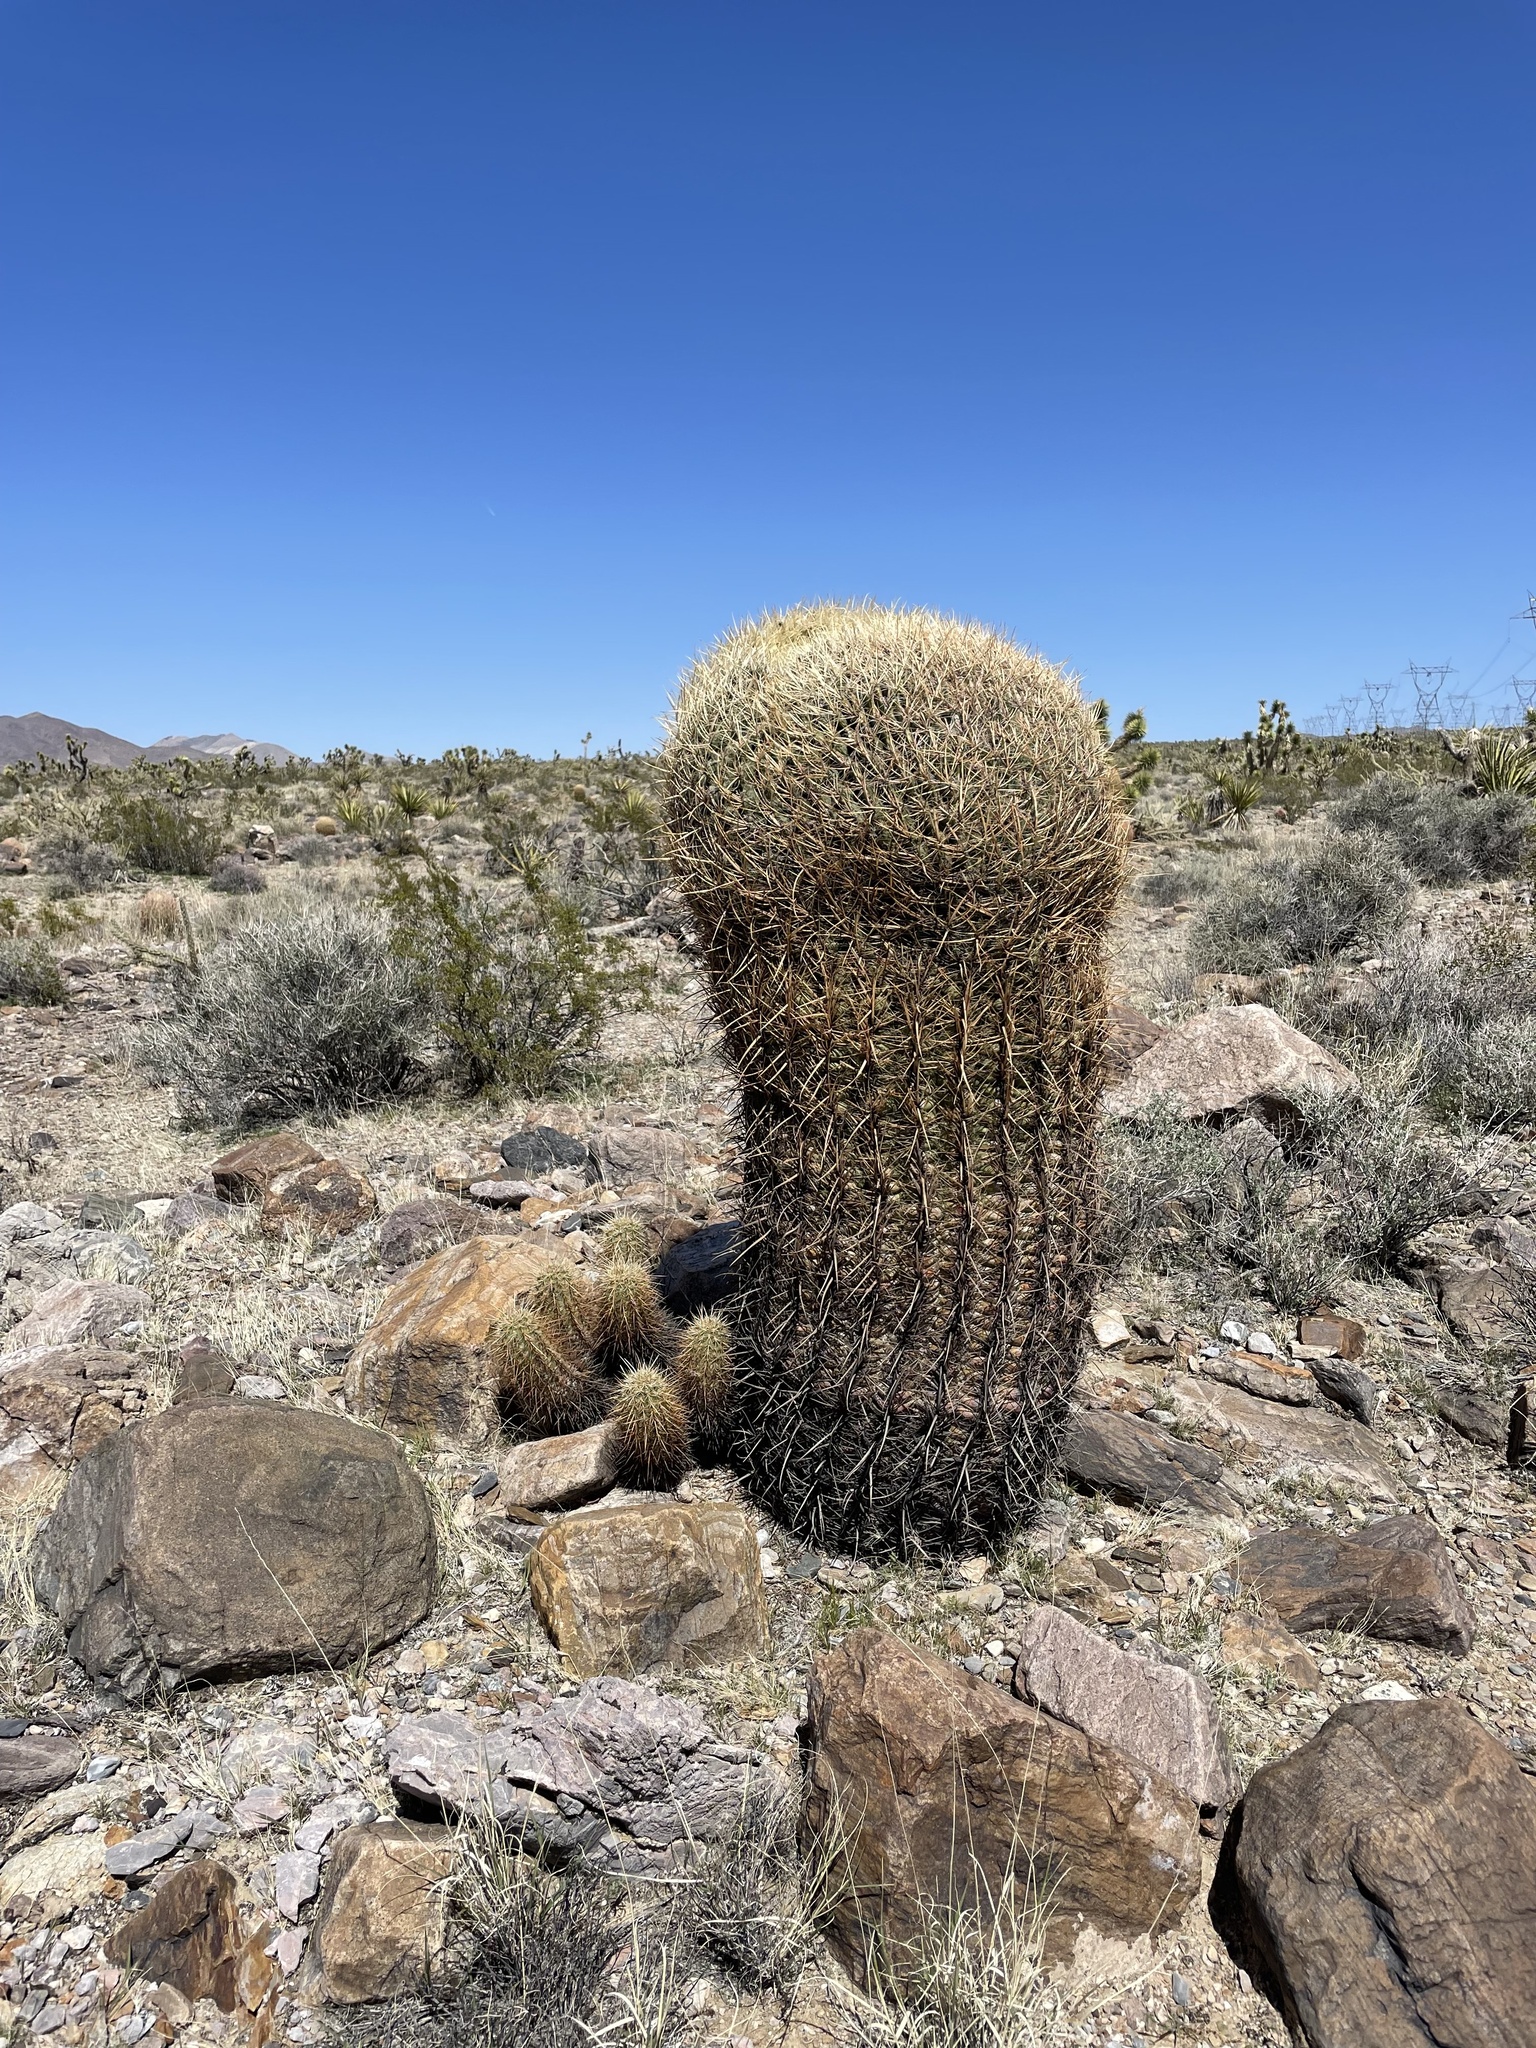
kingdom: Plantae
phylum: Tracheophyta
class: Magnoliopsida
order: Caryophyllales
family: Cactaceae
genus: Ferocactus
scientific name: Ferocactus cylindraceus
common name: California barrel cactus
